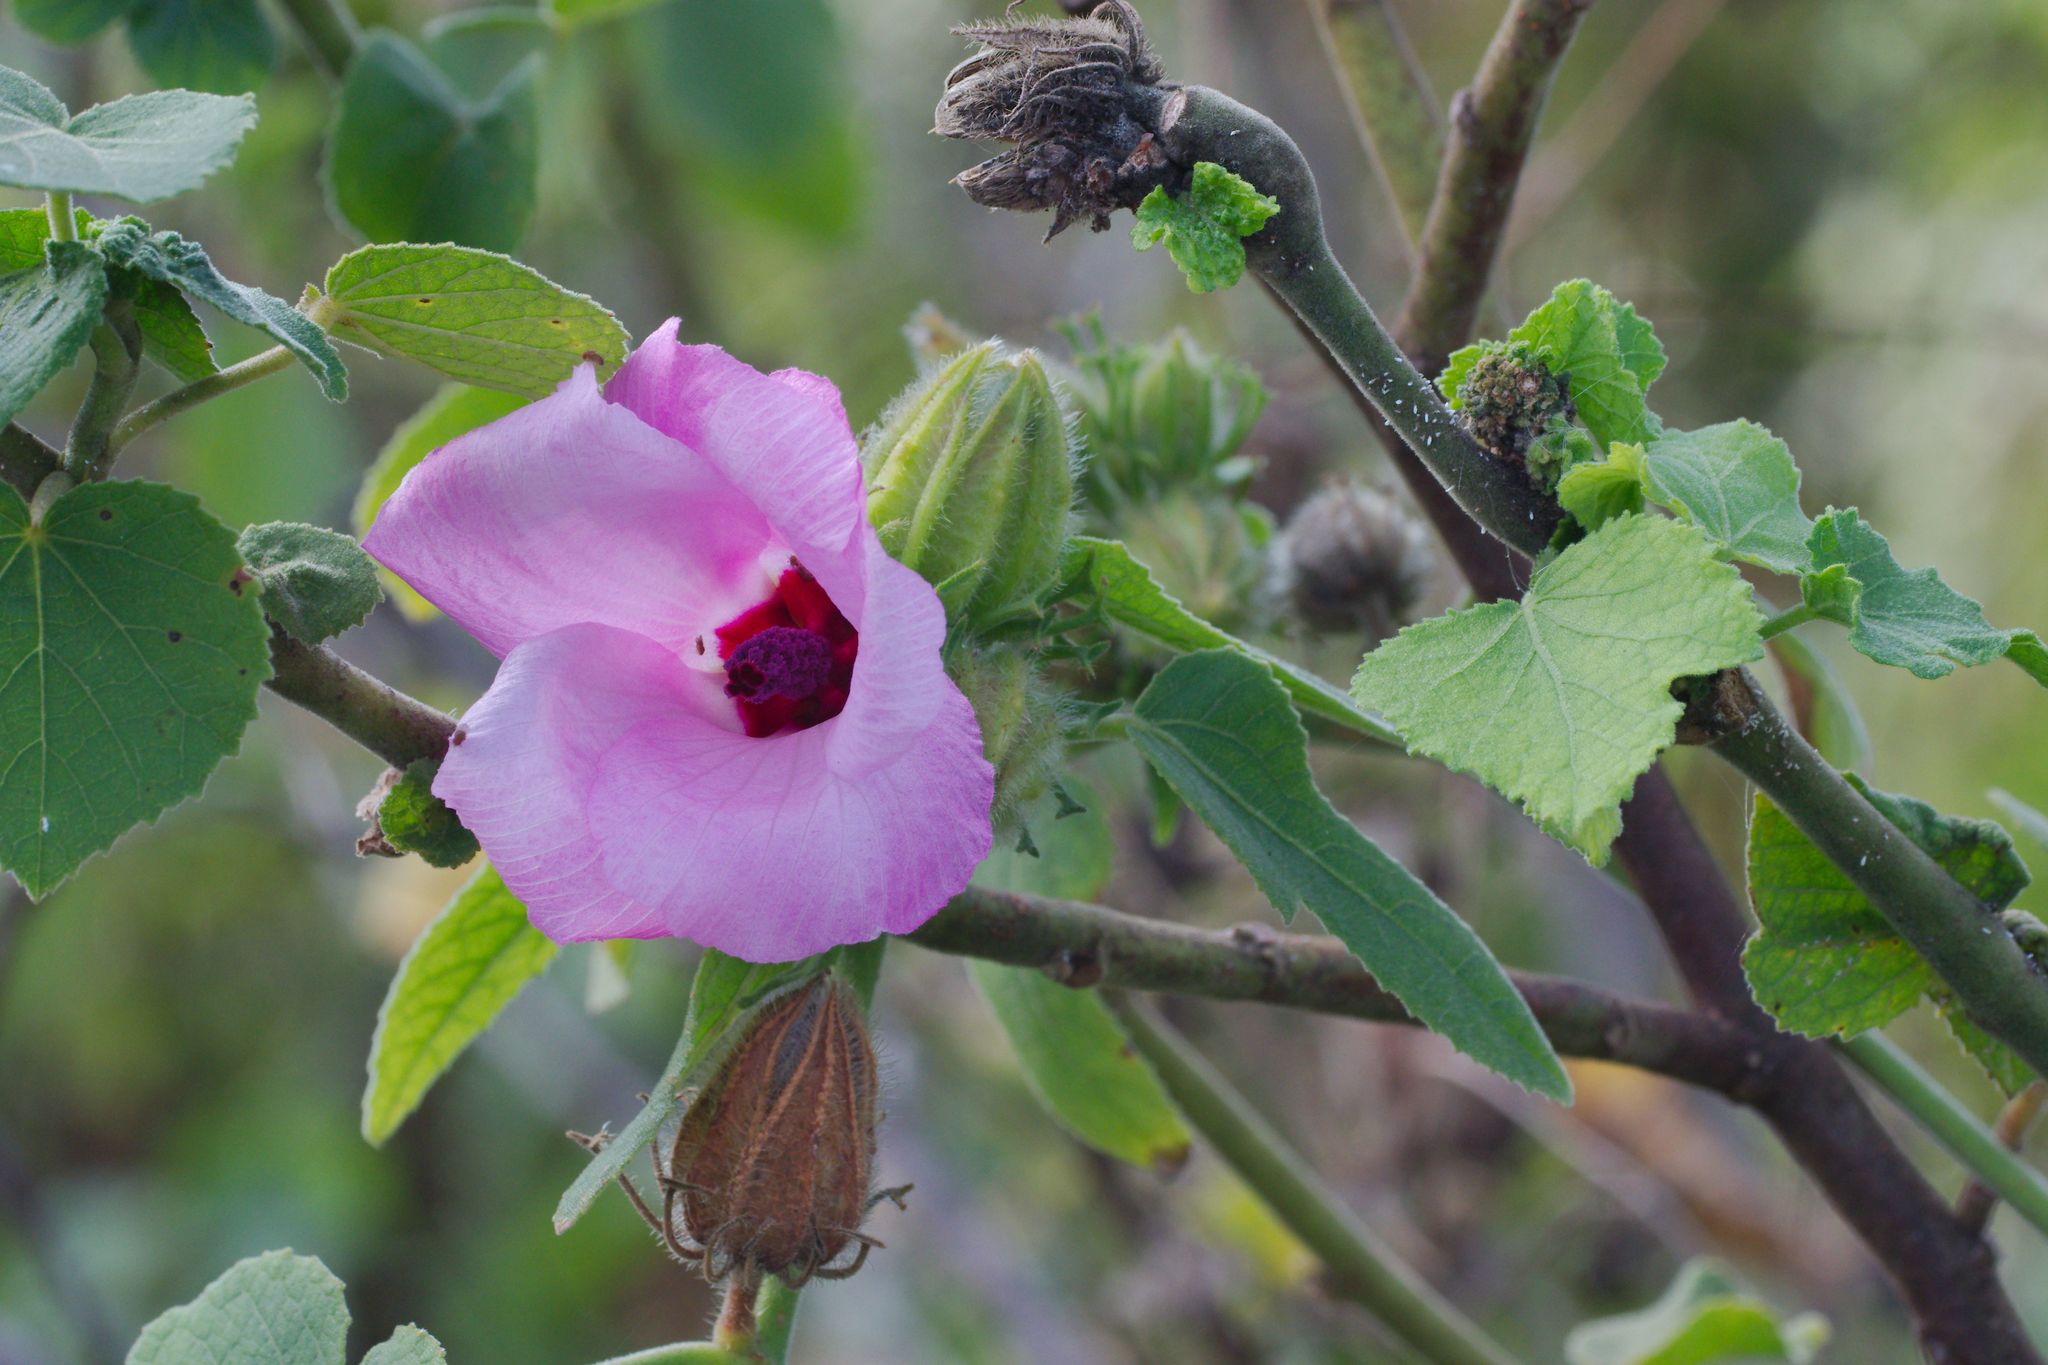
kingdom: Plantae
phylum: Tracheophyta
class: Magnoliopsida
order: Malvales
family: Malvaceae
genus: Hibiscus
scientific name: Hibiscus furcellatus
